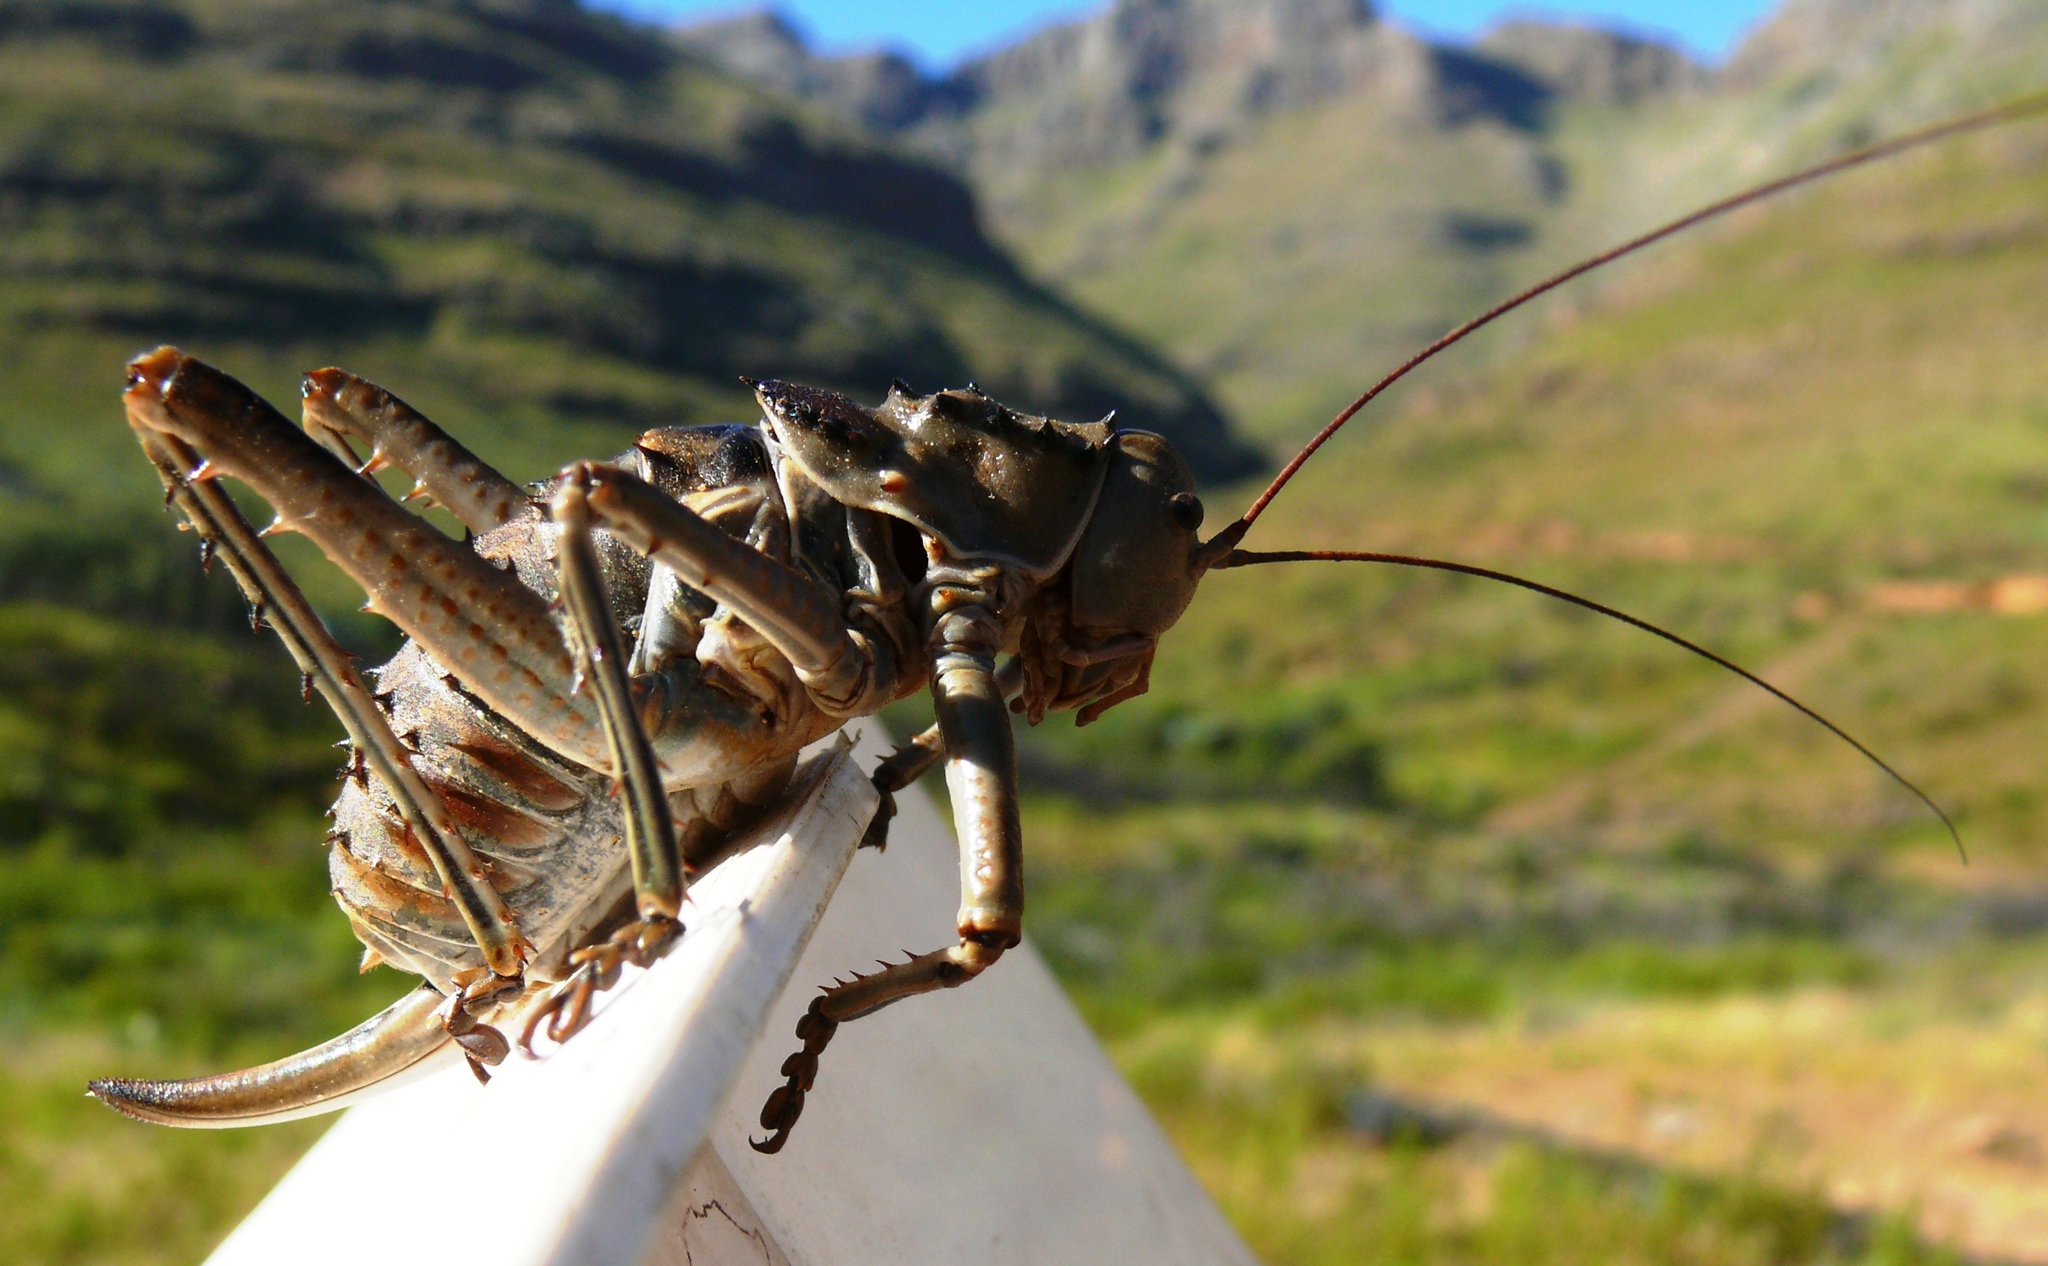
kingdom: Animalia
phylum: Arthropoda
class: Insecta
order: Orthoptera
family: Tettigoniidae
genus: Hetrodes
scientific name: Hetrodes pupus
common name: Koringkriek
